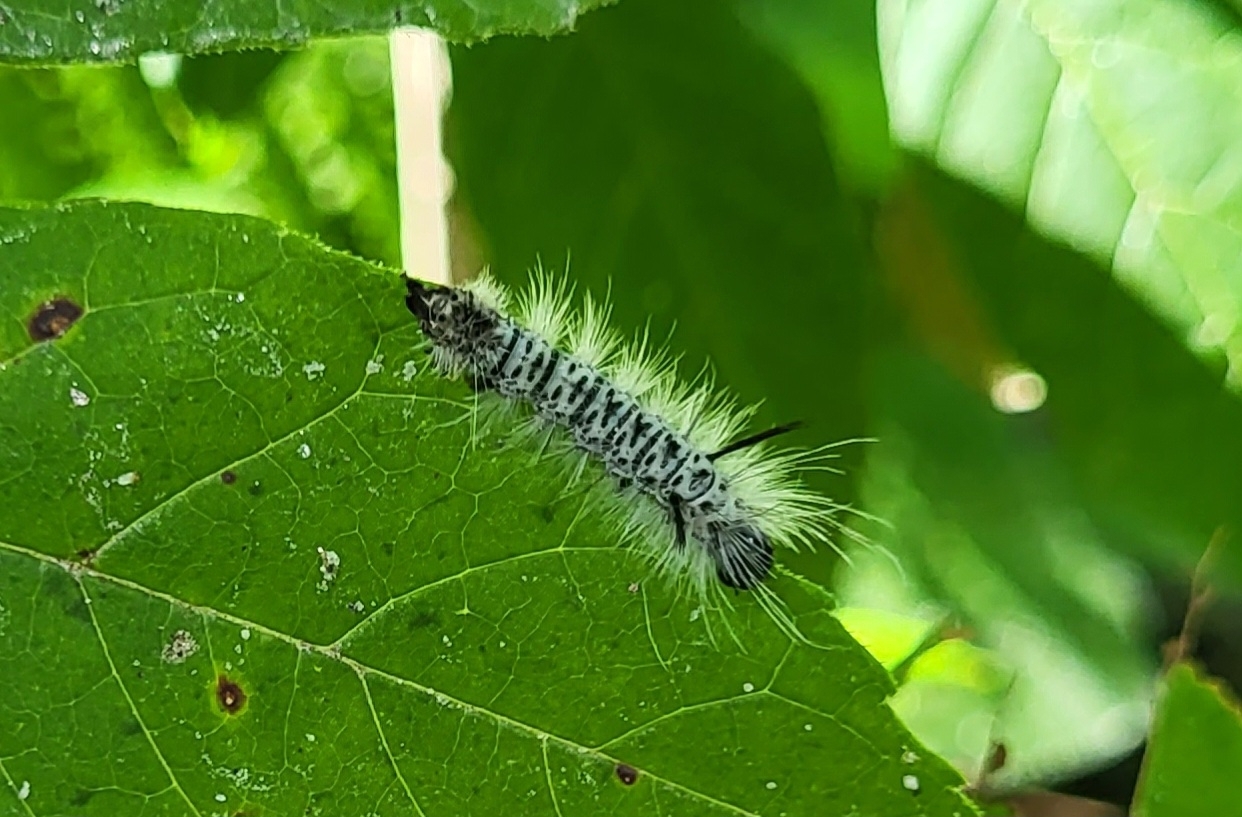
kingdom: Animalia
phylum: Arthropoda
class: Insecta
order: Lepidoptera
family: Erebidae
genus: Lophocampa
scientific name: Lophocampa caryae
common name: Hickory tussock moth
